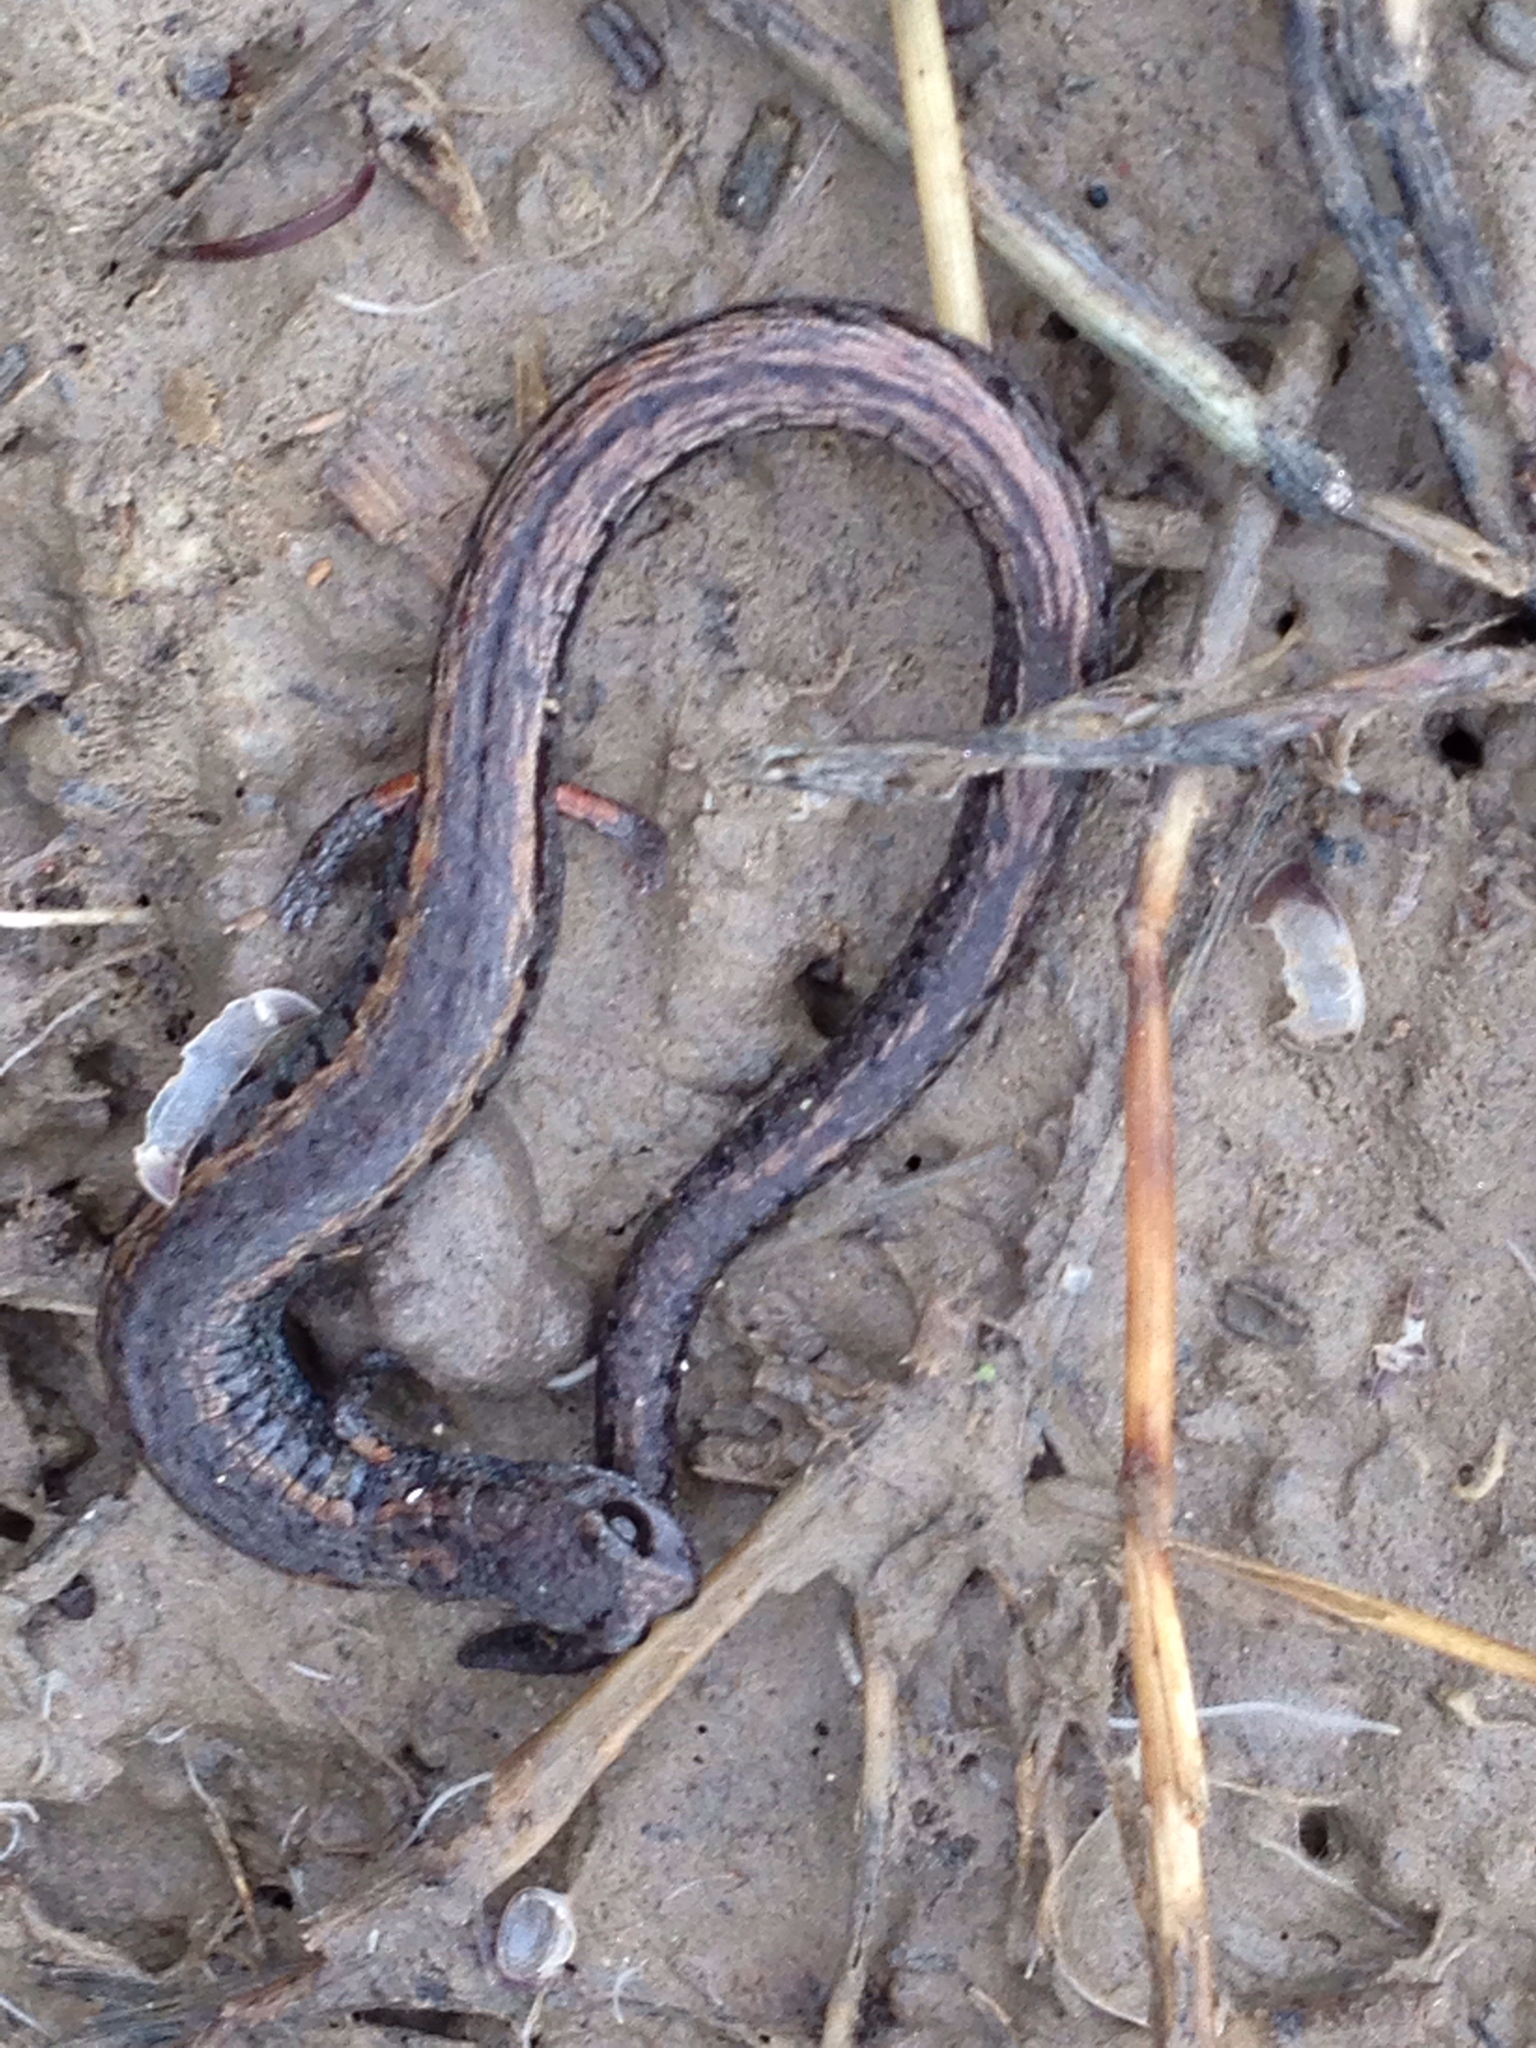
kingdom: Animalia
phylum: Chordata
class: Amphibia
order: Caudata
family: Plethodontidae
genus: Batrachoseps
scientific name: Batrachoseps attenuatus
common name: California slender salamander
